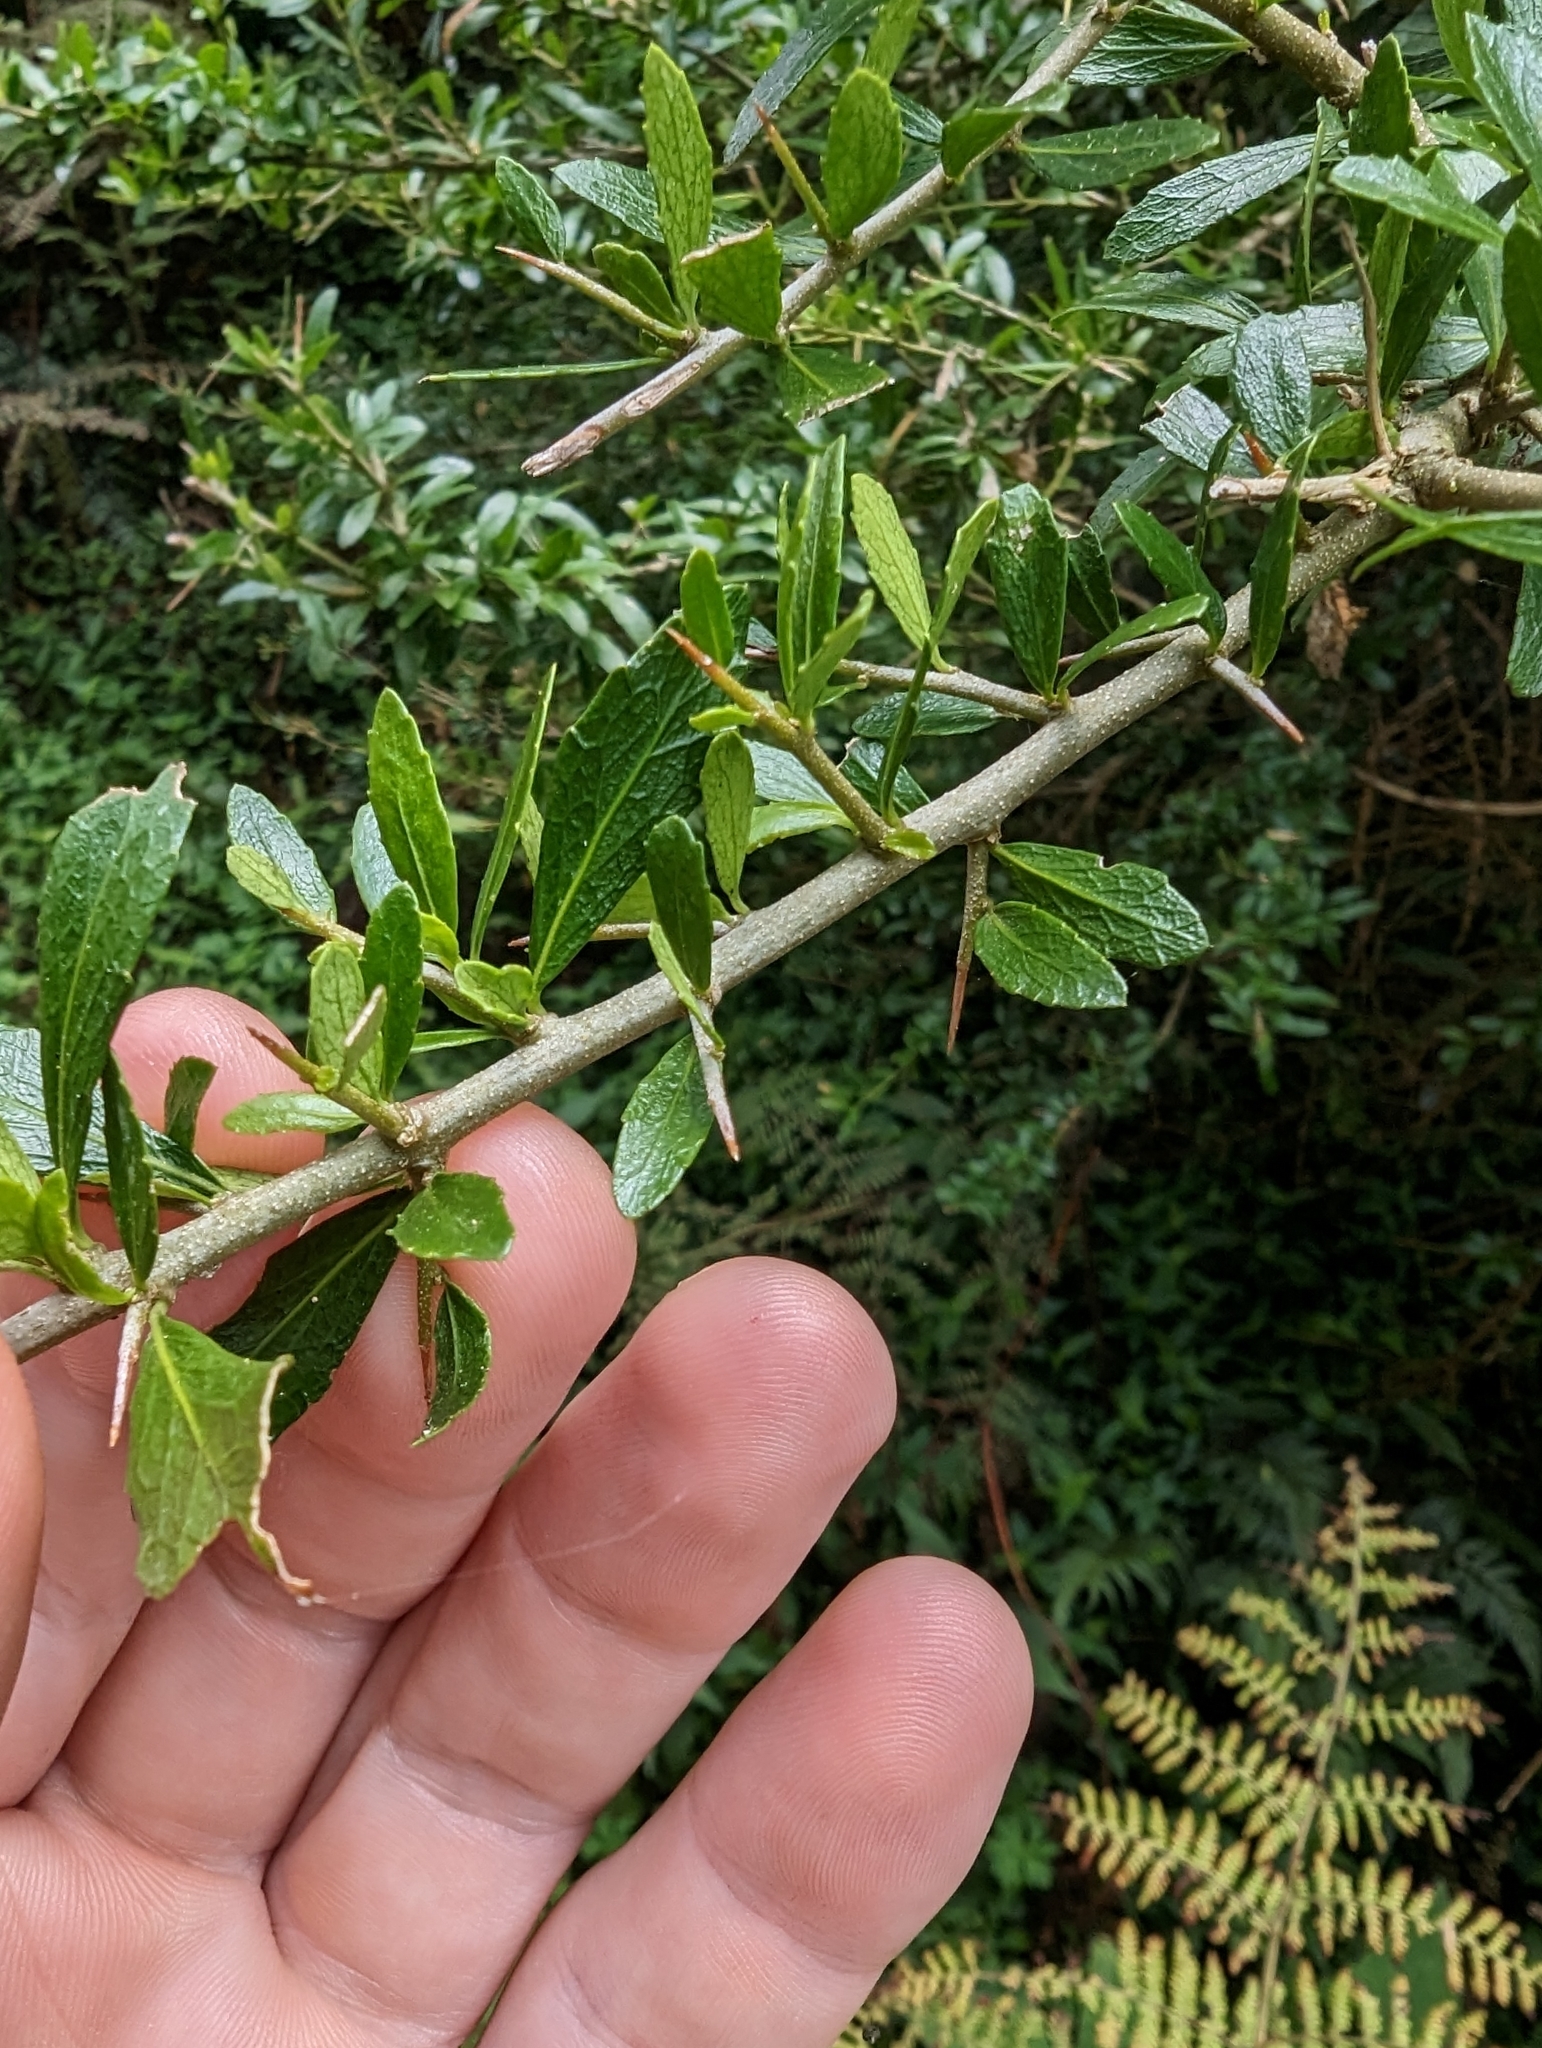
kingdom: Plantae
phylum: Tracheophyta
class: Magnoliopsida
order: Malpighiales
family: Violaceae
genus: Melicytus
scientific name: Melicytus dentatus
